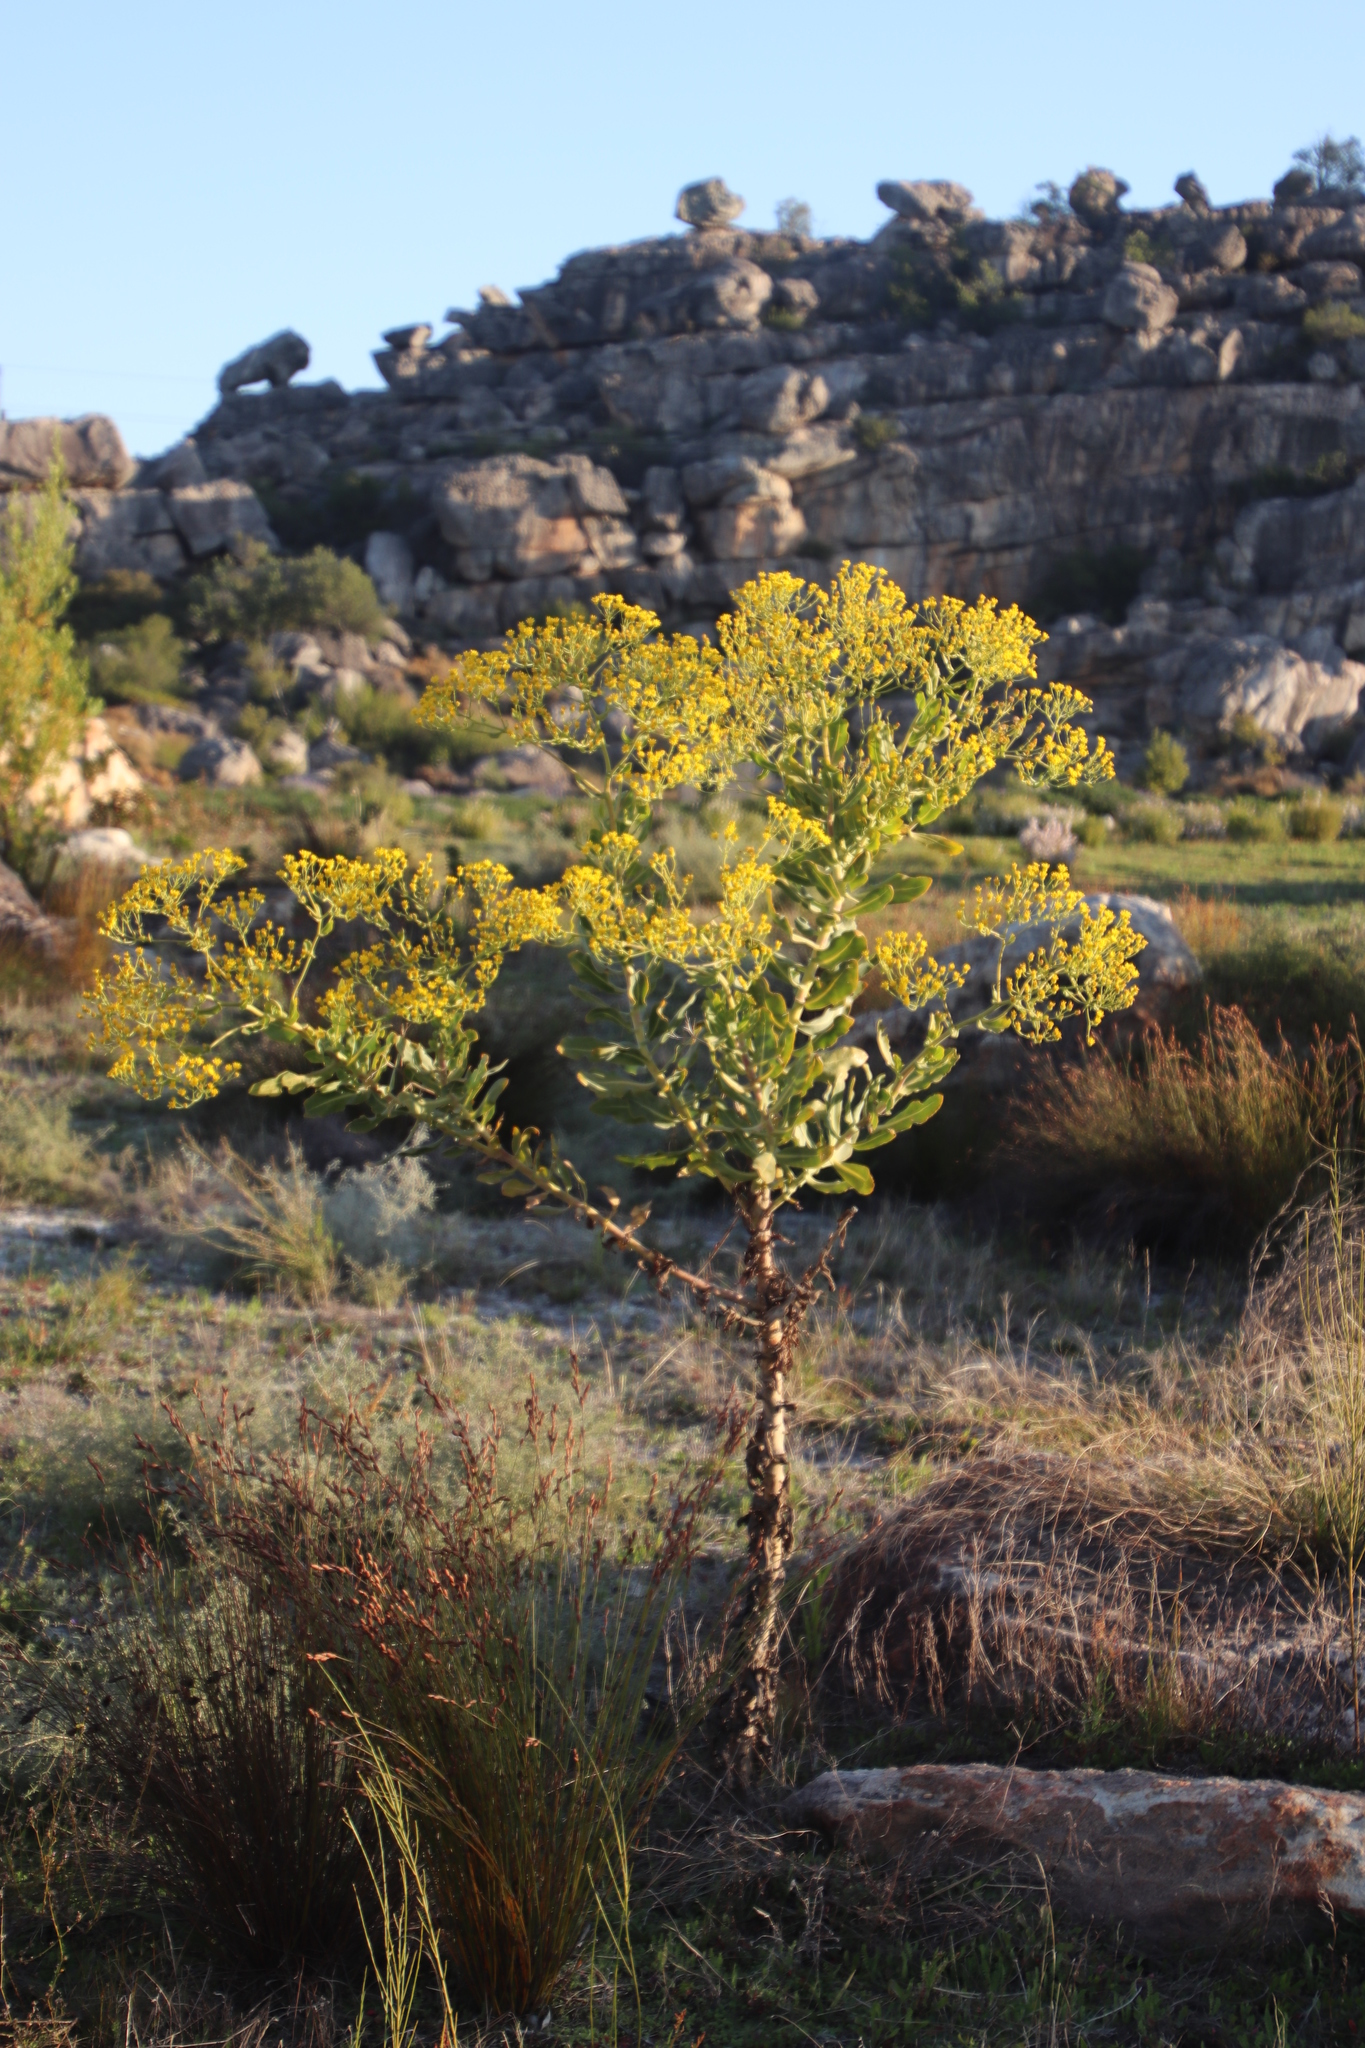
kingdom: Plantae
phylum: Tracheophyta
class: Magnoliopsida
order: Asterales
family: Asteraceae
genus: Othonna
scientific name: Othonna parviflora
